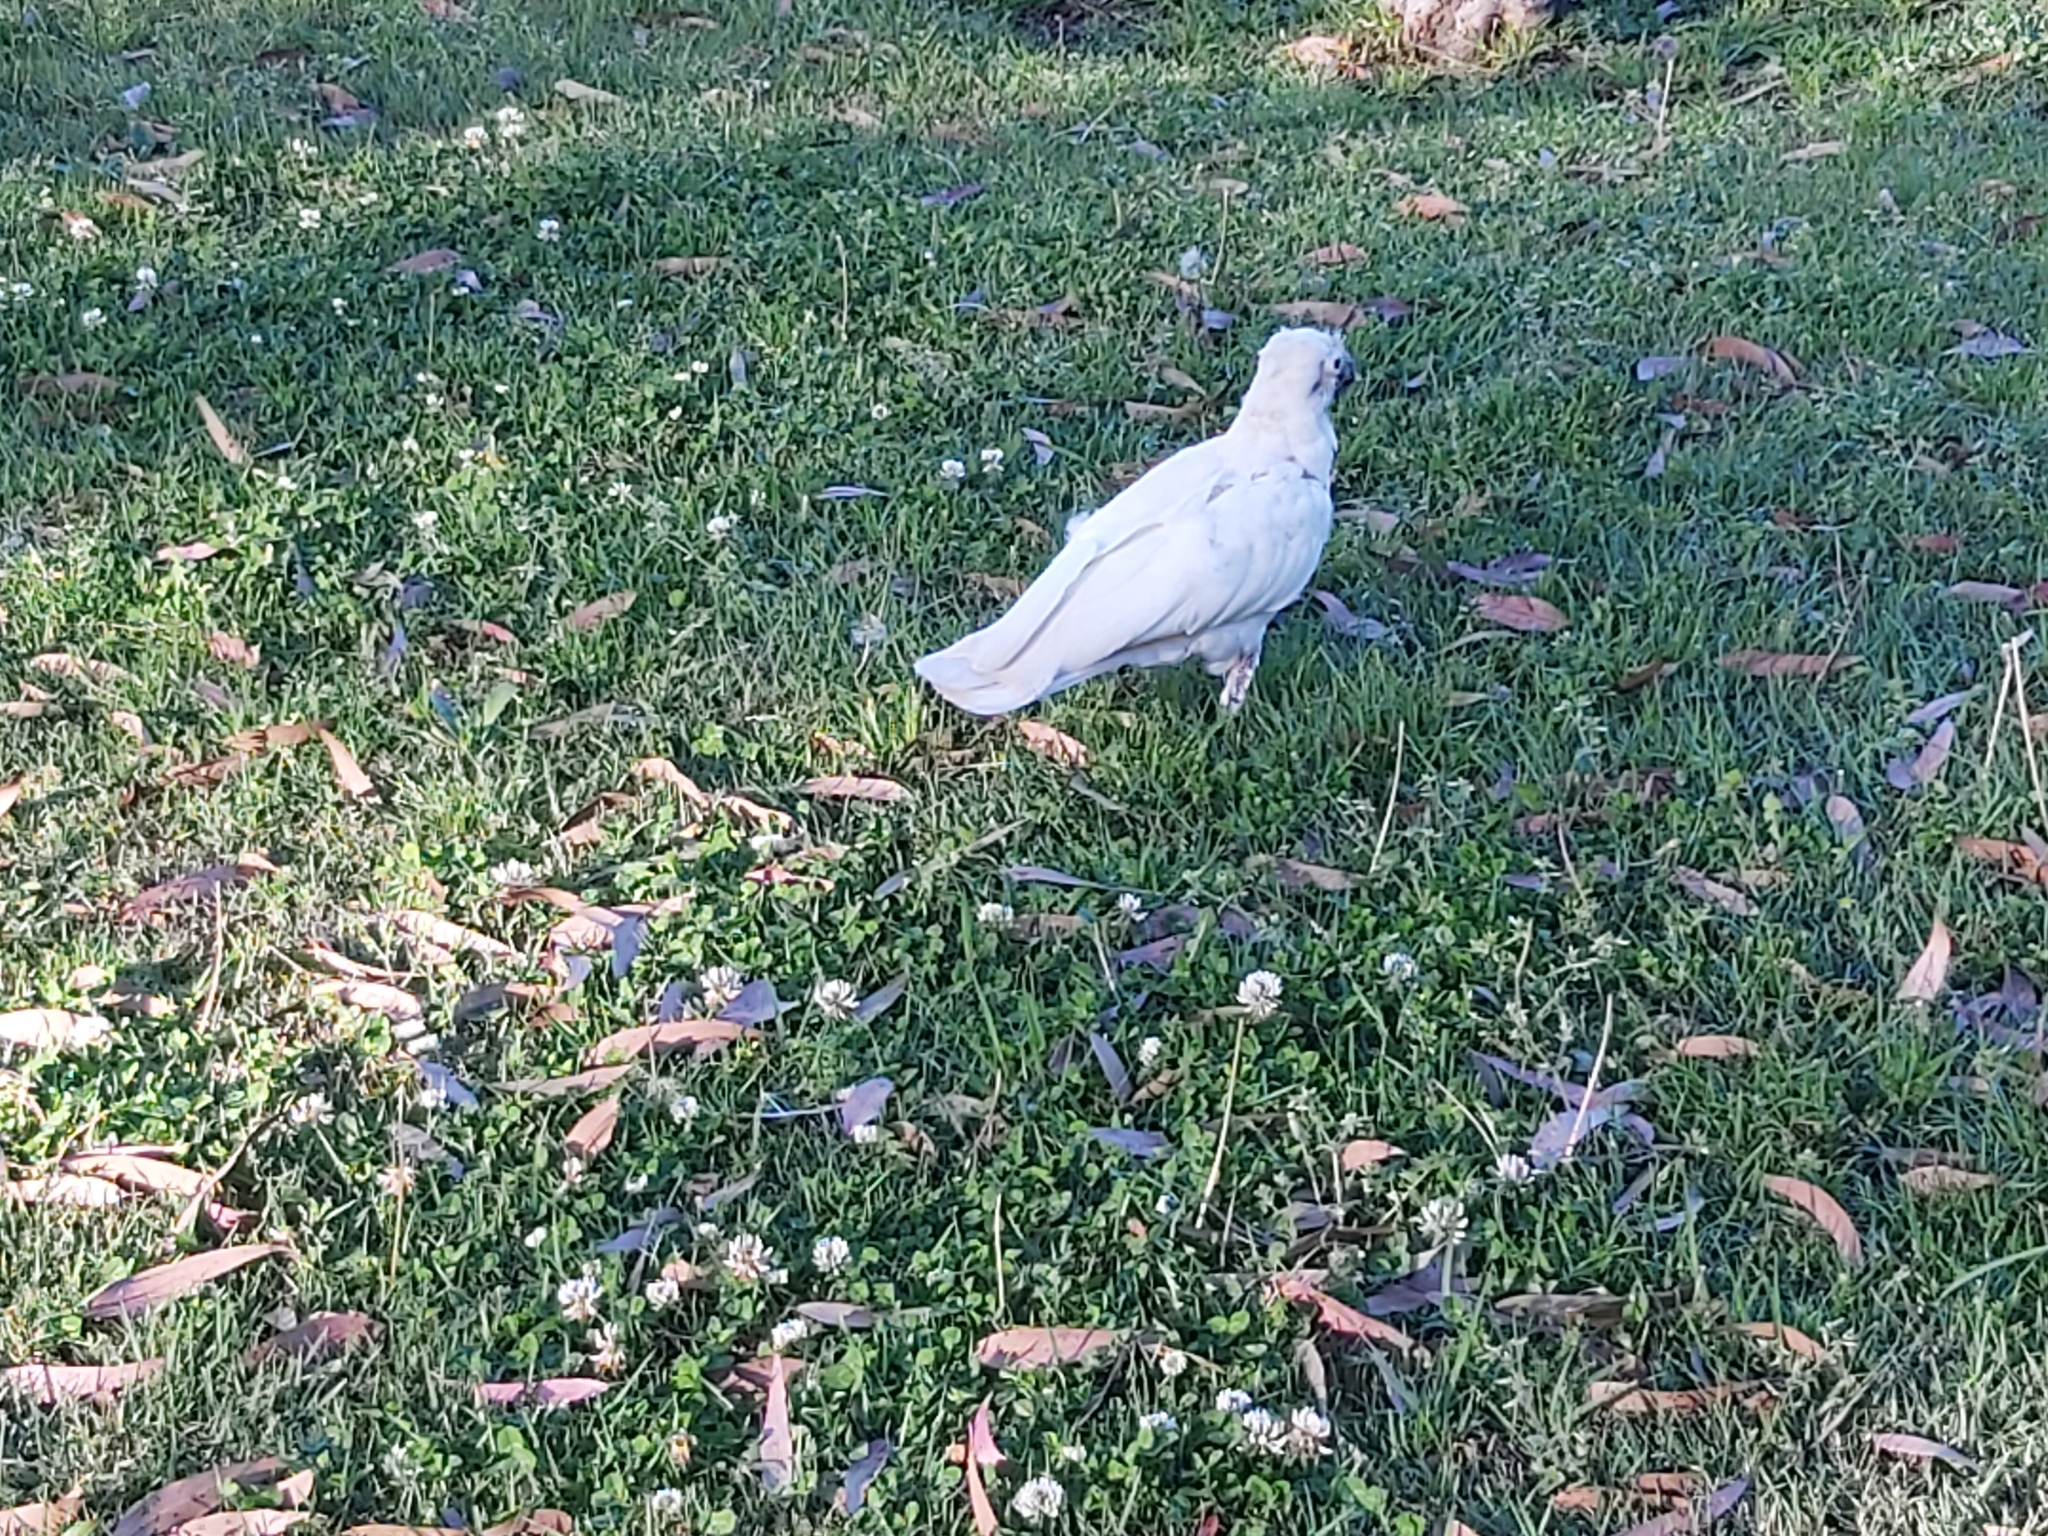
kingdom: Animalia
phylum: Chordata
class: Aves
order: Psittaciformes
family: Psittacidae
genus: Cacatua
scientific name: Cacatua galerita
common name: Sulphur-crested cockatoo
